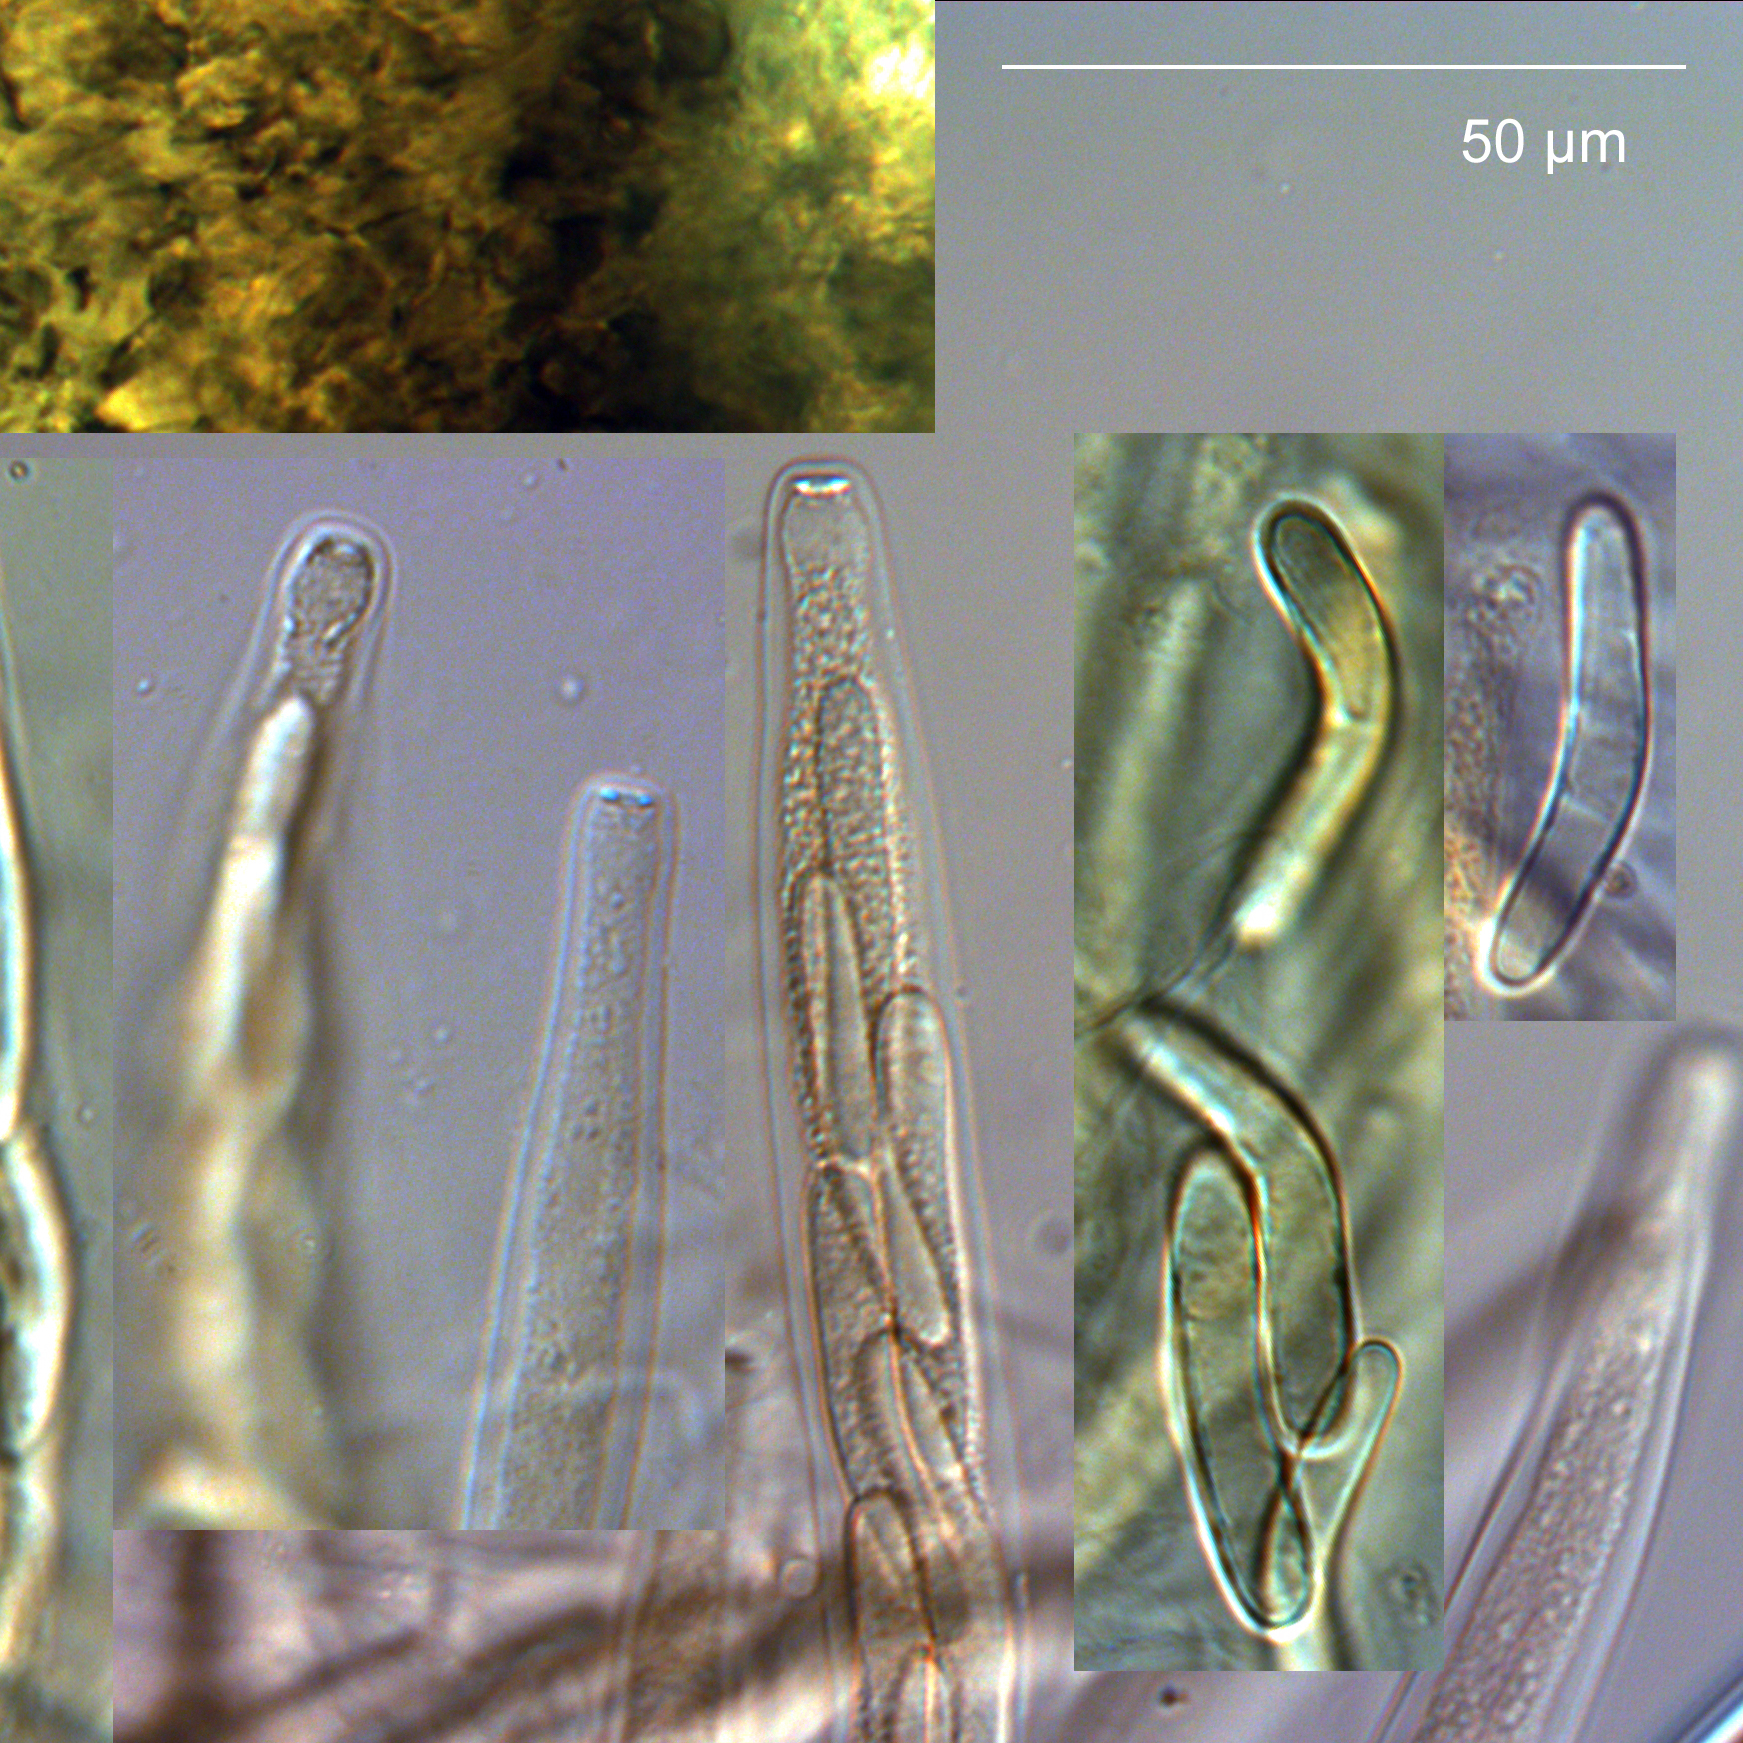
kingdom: Fungi
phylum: Ascomycota
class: Sordariomycetes
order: Sordariales
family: Lasiosphaeriaceae
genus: Lasiosphaeria
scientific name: Lasiosphaeria sorbina
